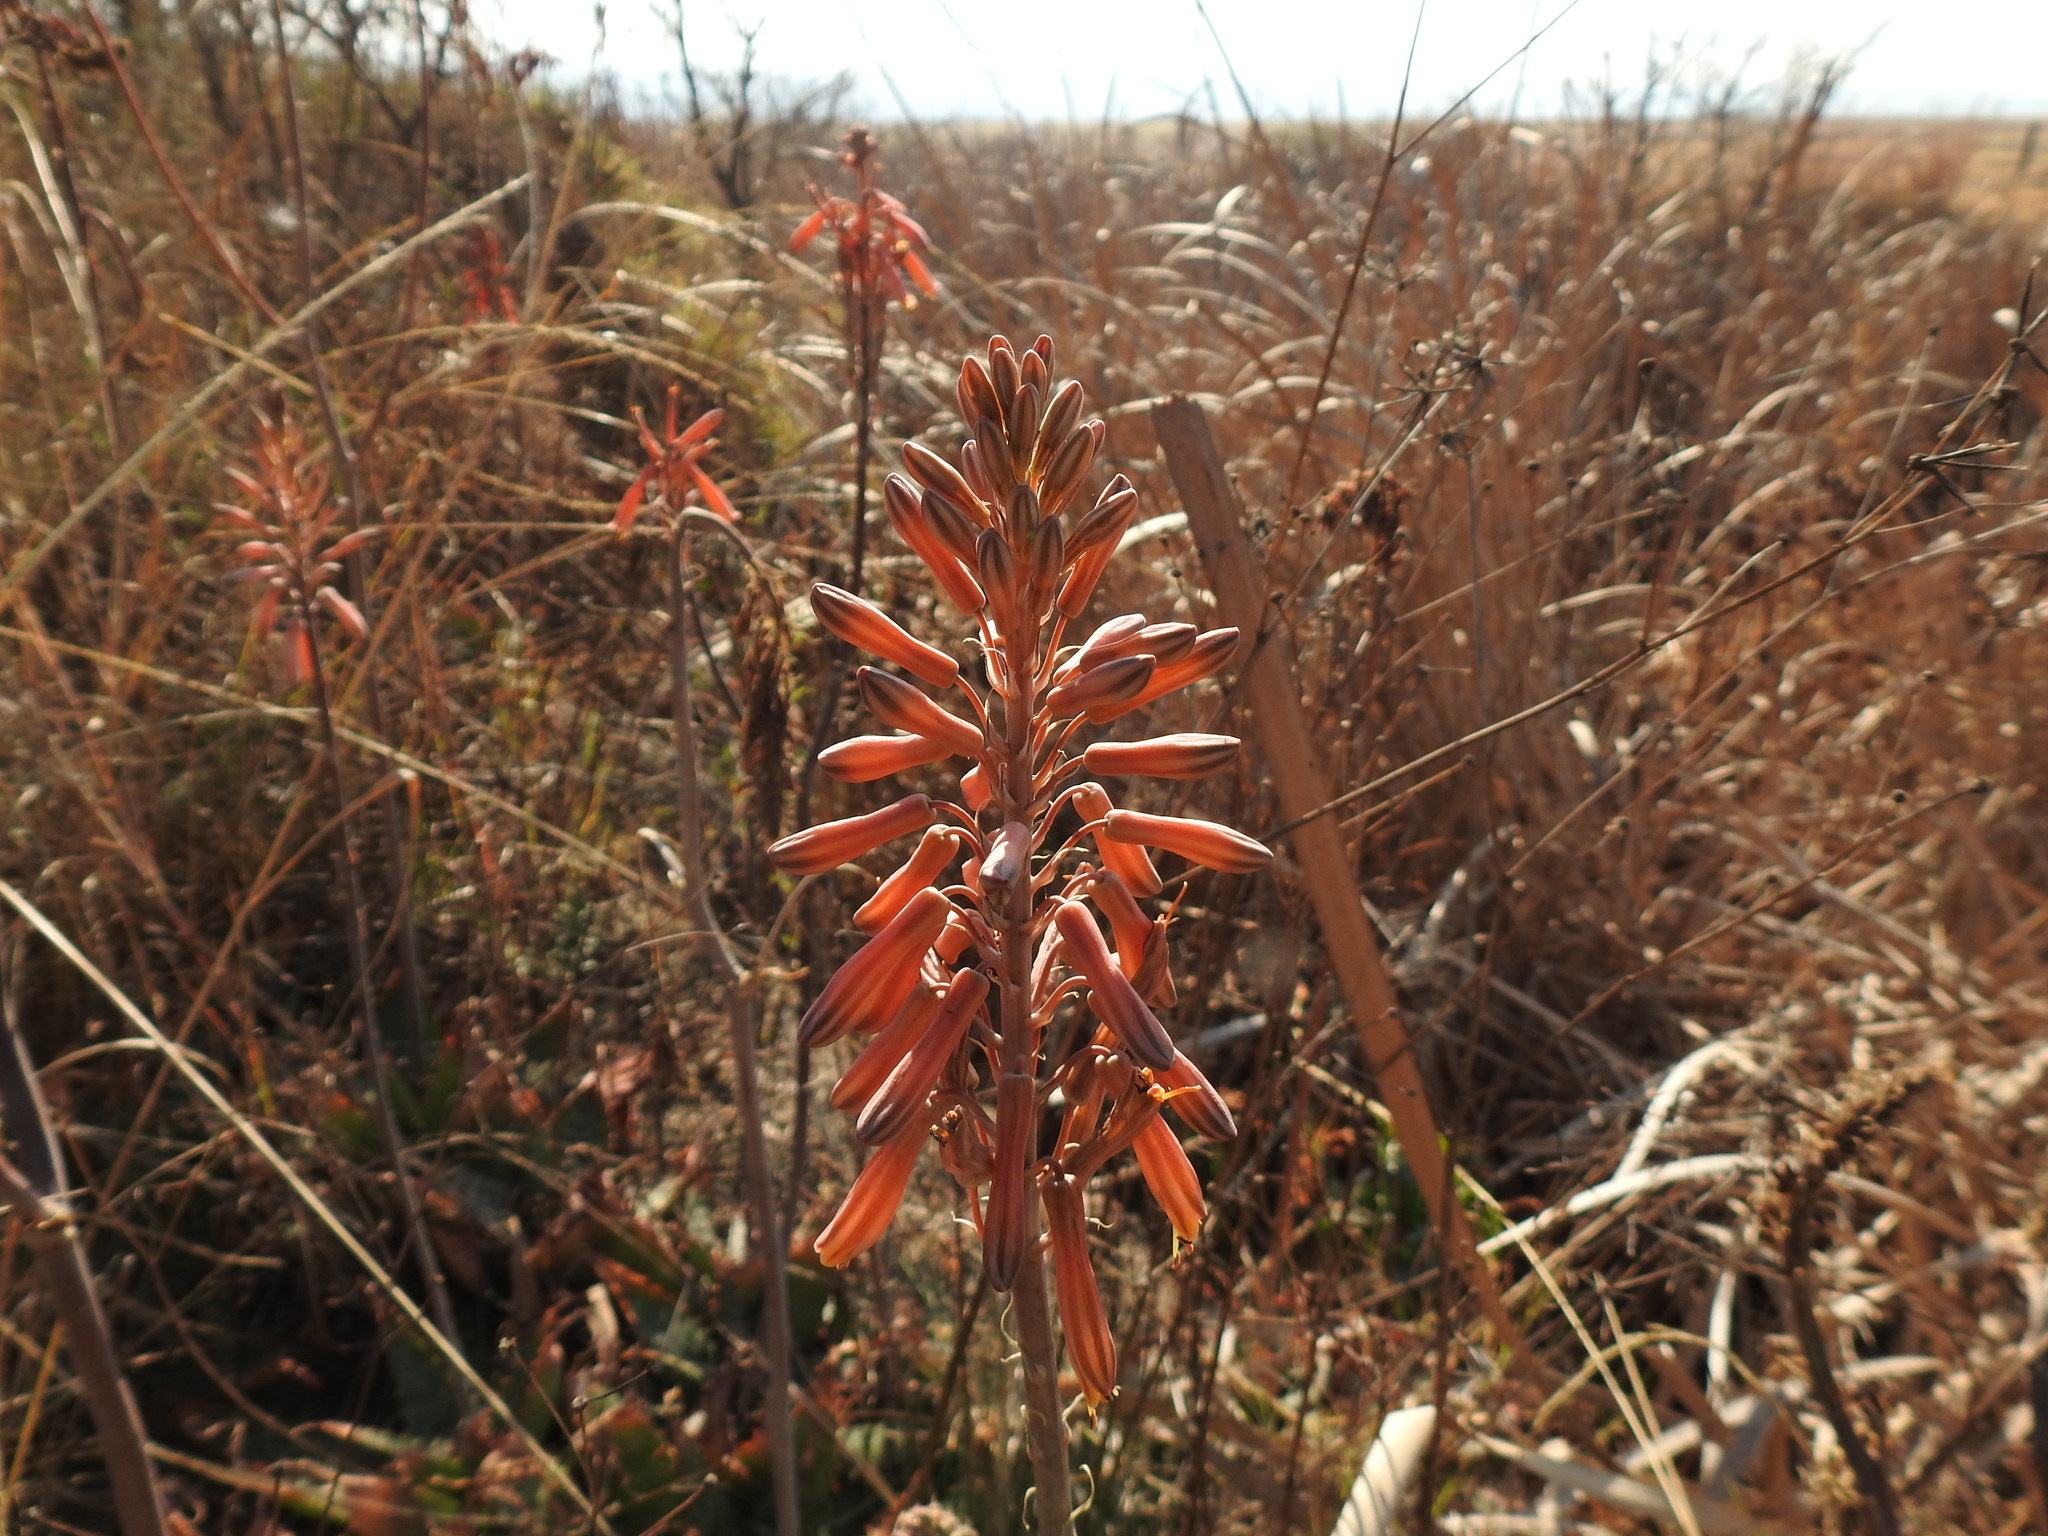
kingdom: Plantae
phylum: Tracheophyta
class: Liliopsida
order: Asparagales
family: Asphodelaceae
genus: Aloe
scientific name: Aloe davyana
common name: Spotted aloe
